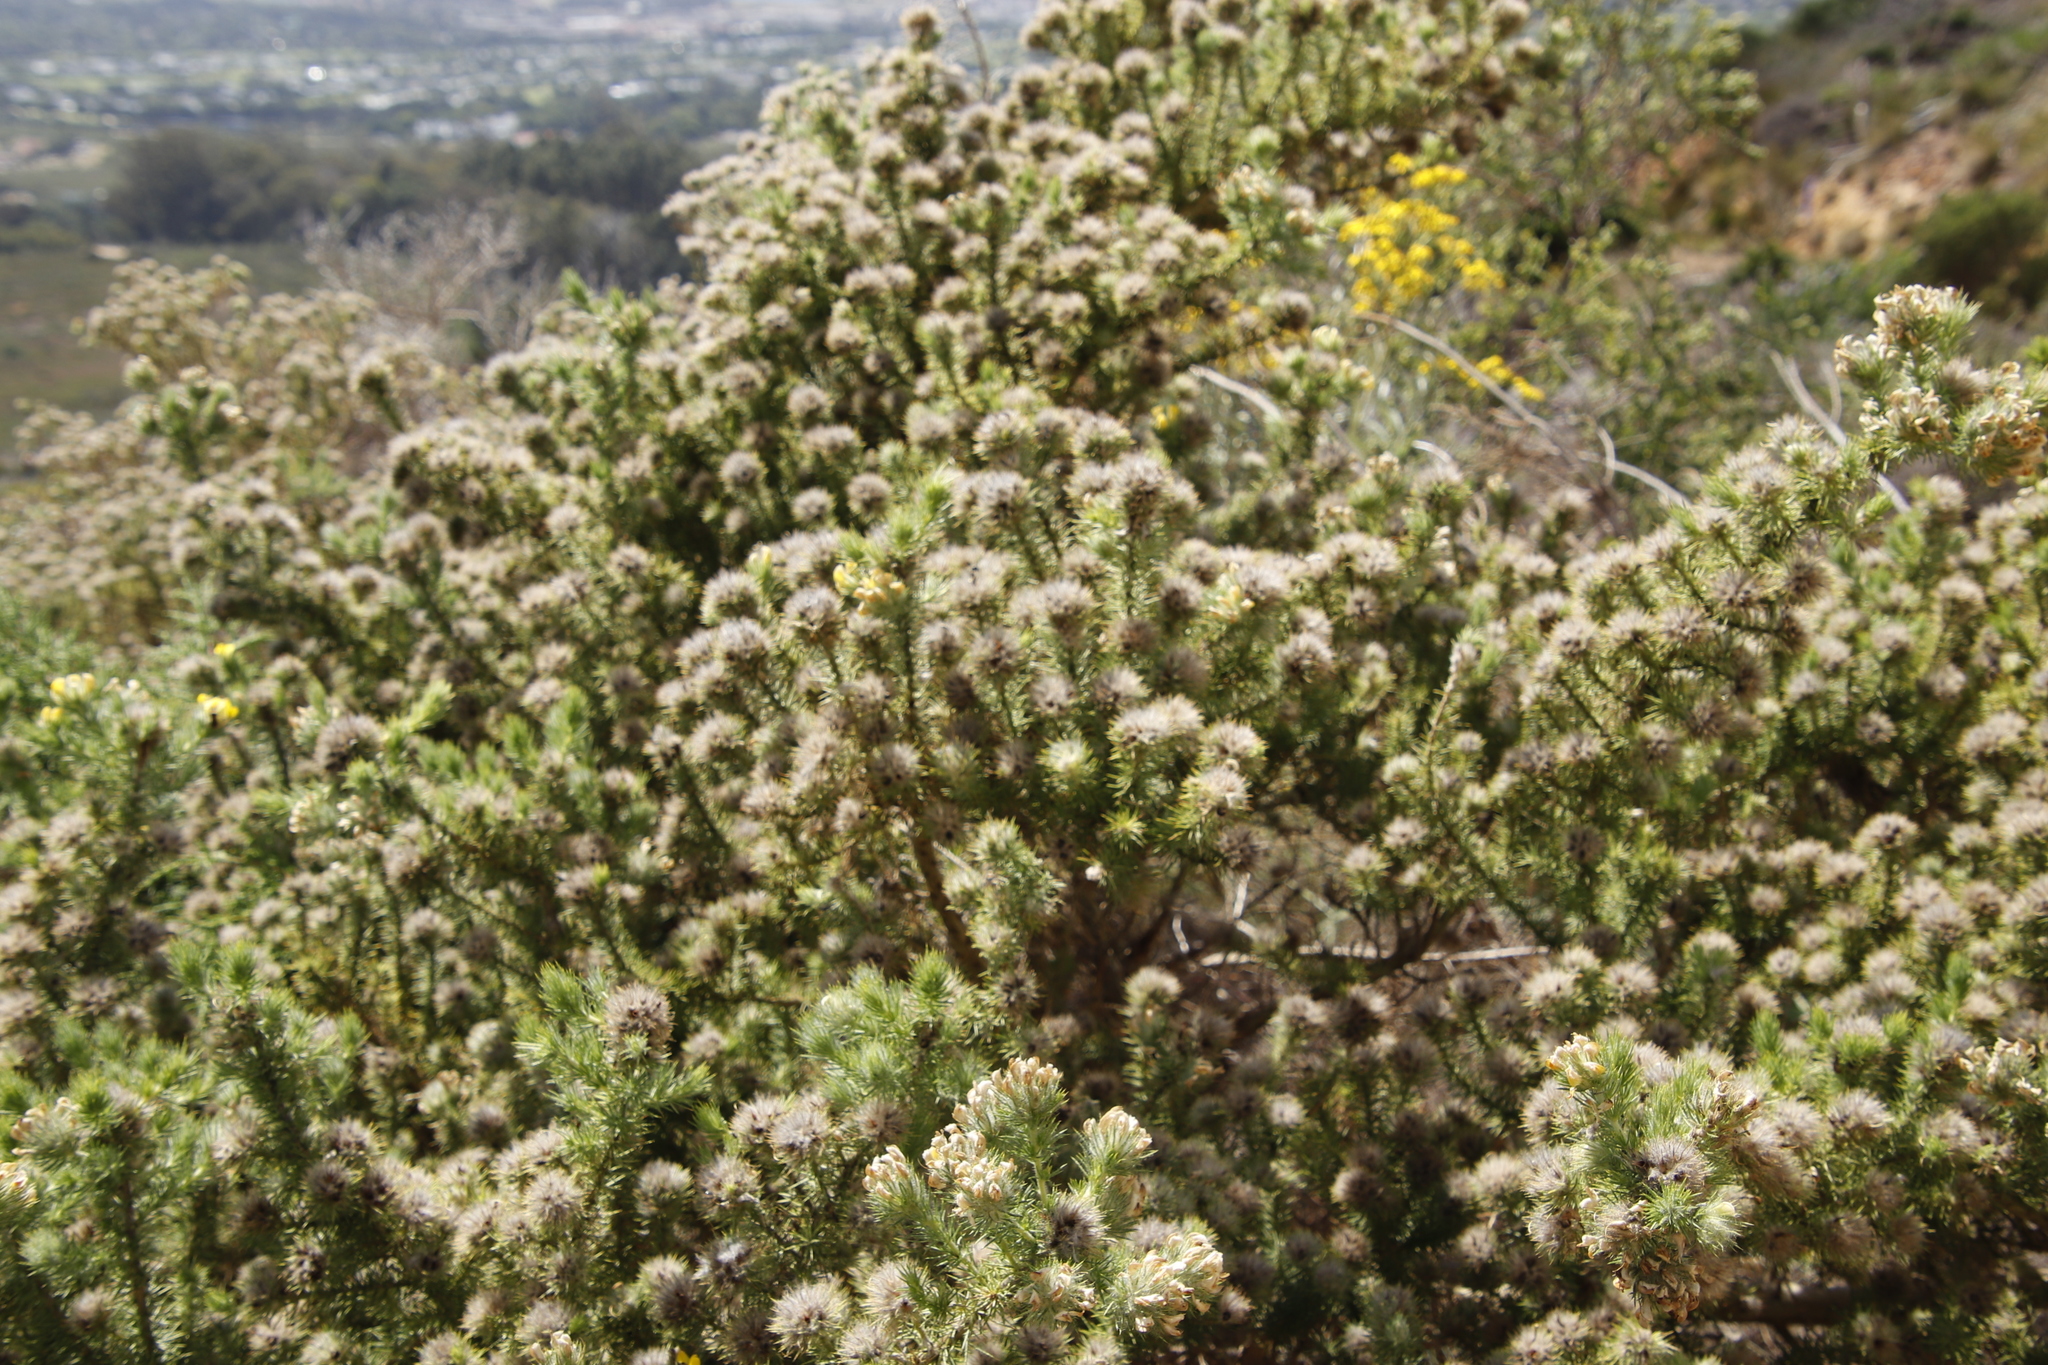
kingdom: Plantae
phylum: Tracheophyta
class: Magnoliopsida
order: Fabales
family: Fabaceae
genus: Aspalathus
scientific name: Aspalathus chenopoda
